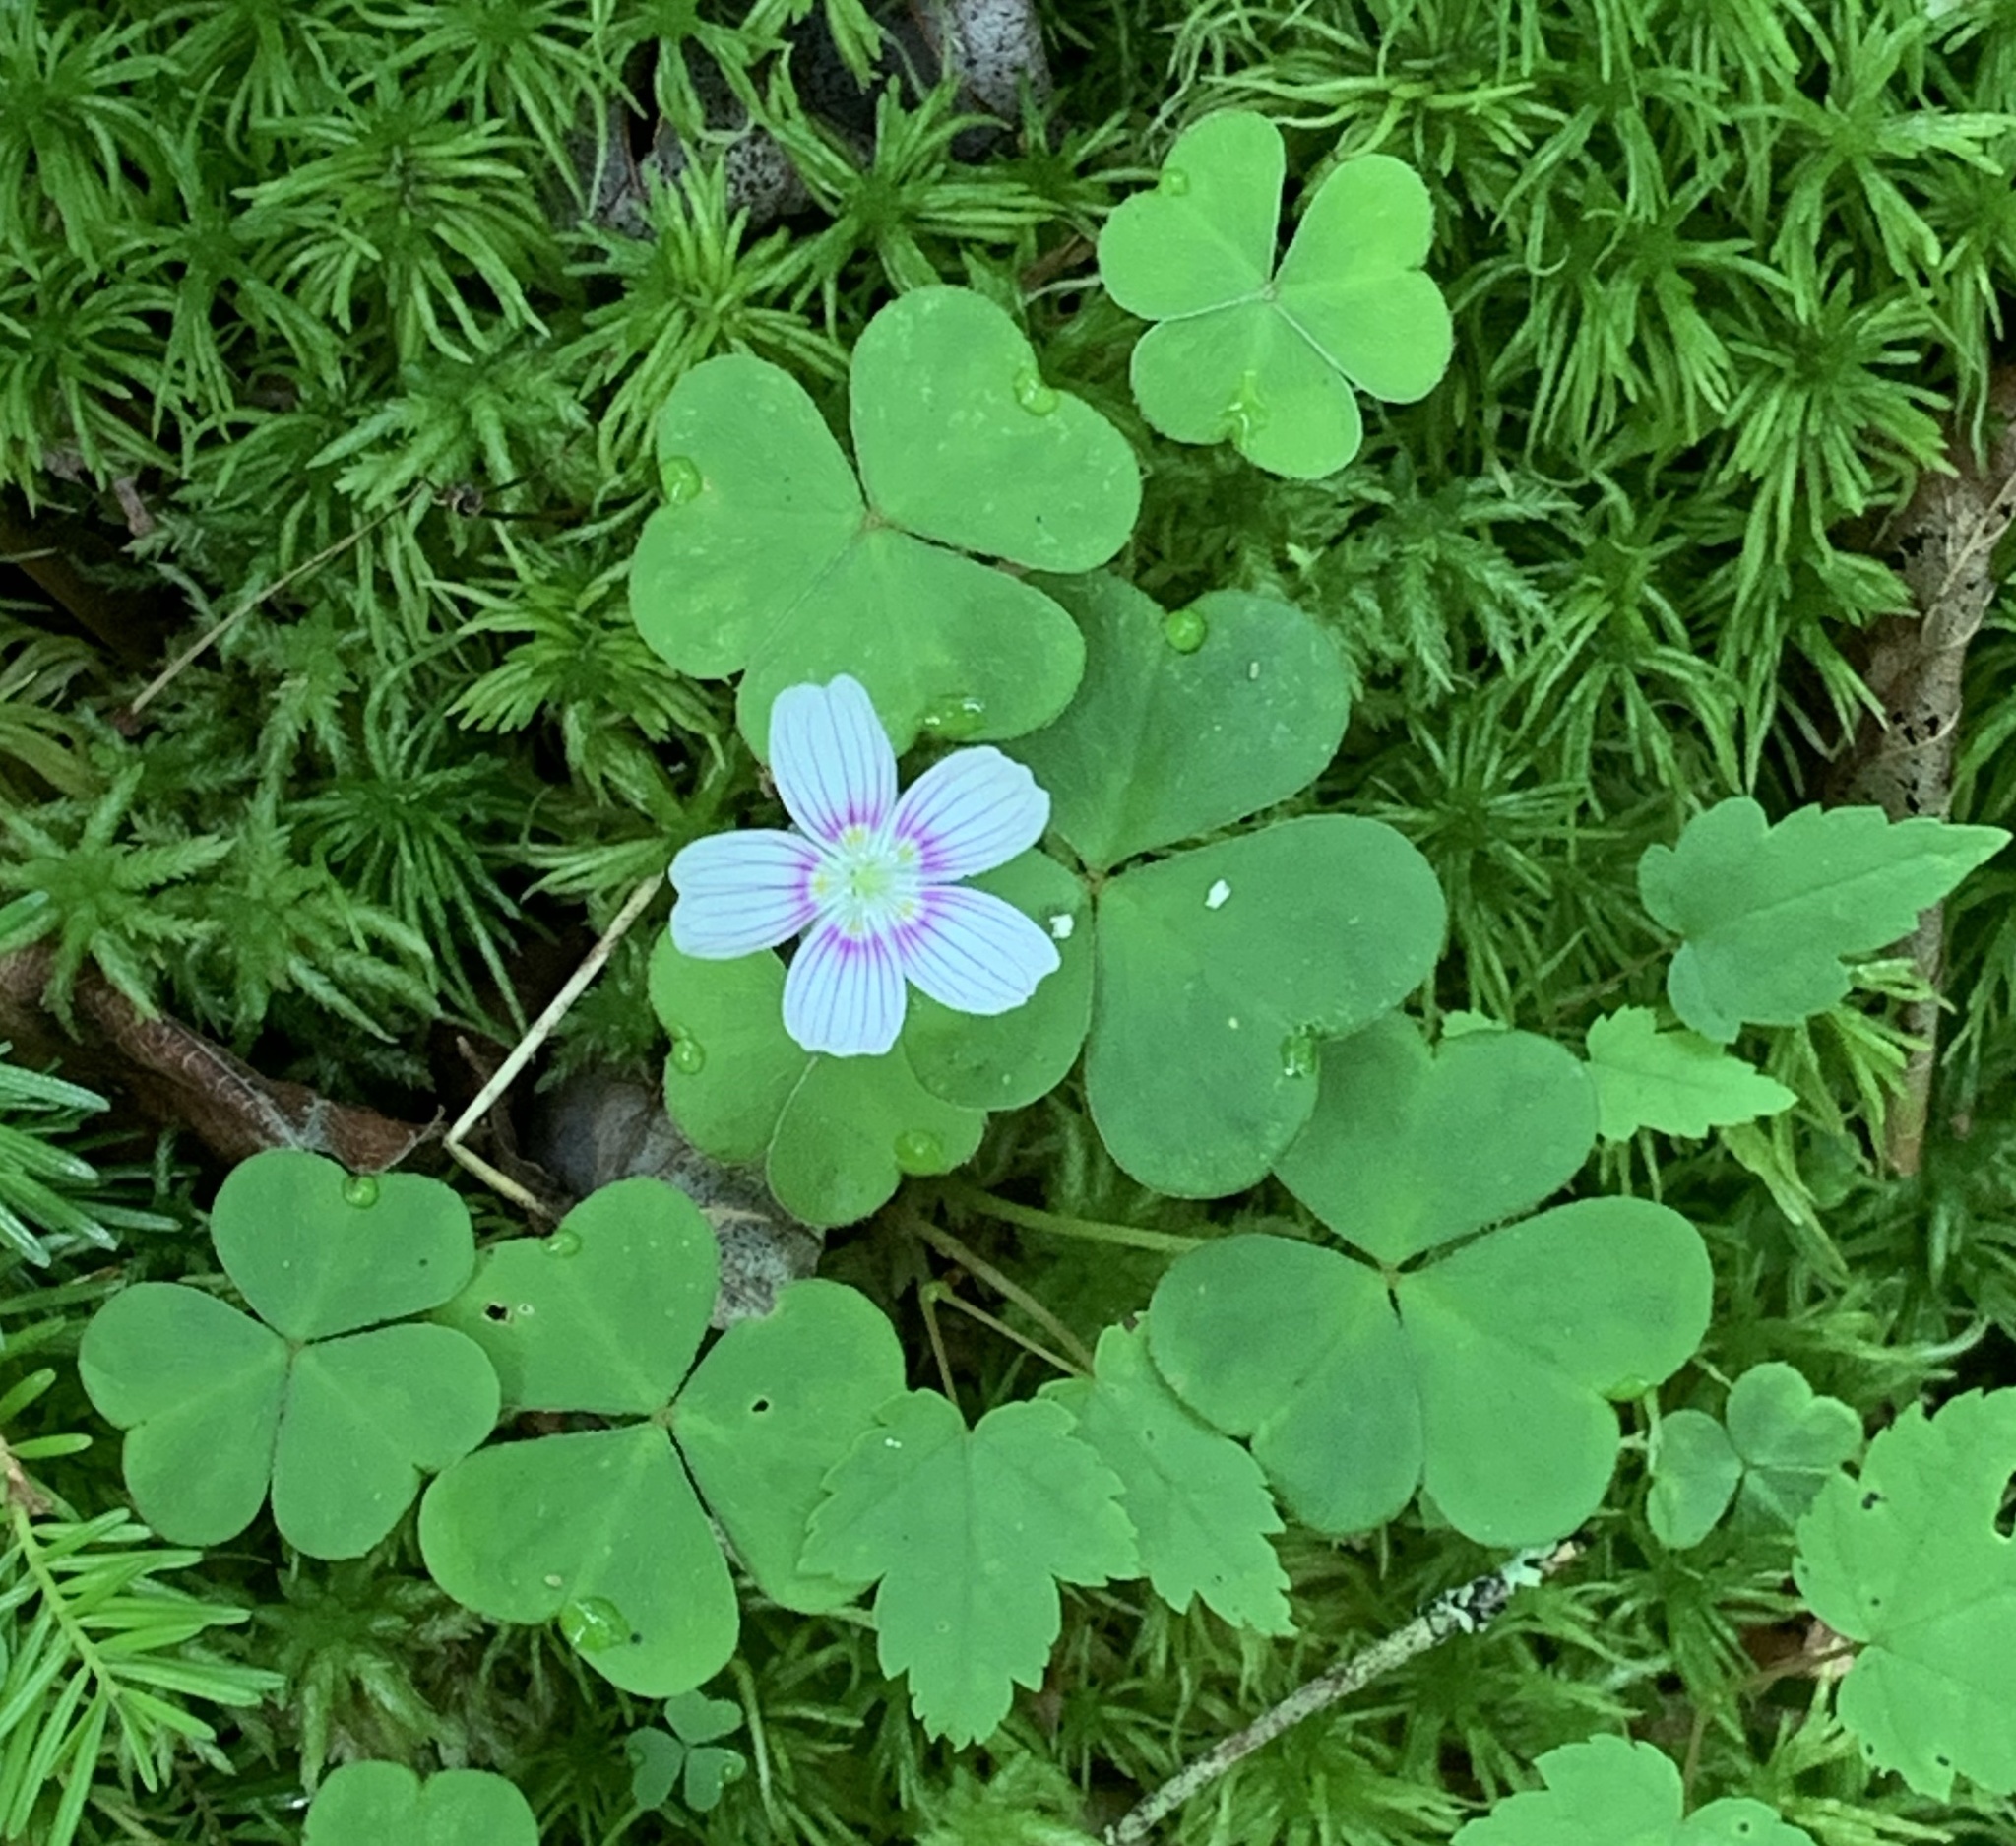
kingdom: Plantae
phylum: Tracheophyta
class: Magnoliopsida
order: Oxalidales
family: Oxalidaceae
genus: Oxalis
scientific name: Oxalis montana
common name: American wood-sorrel
